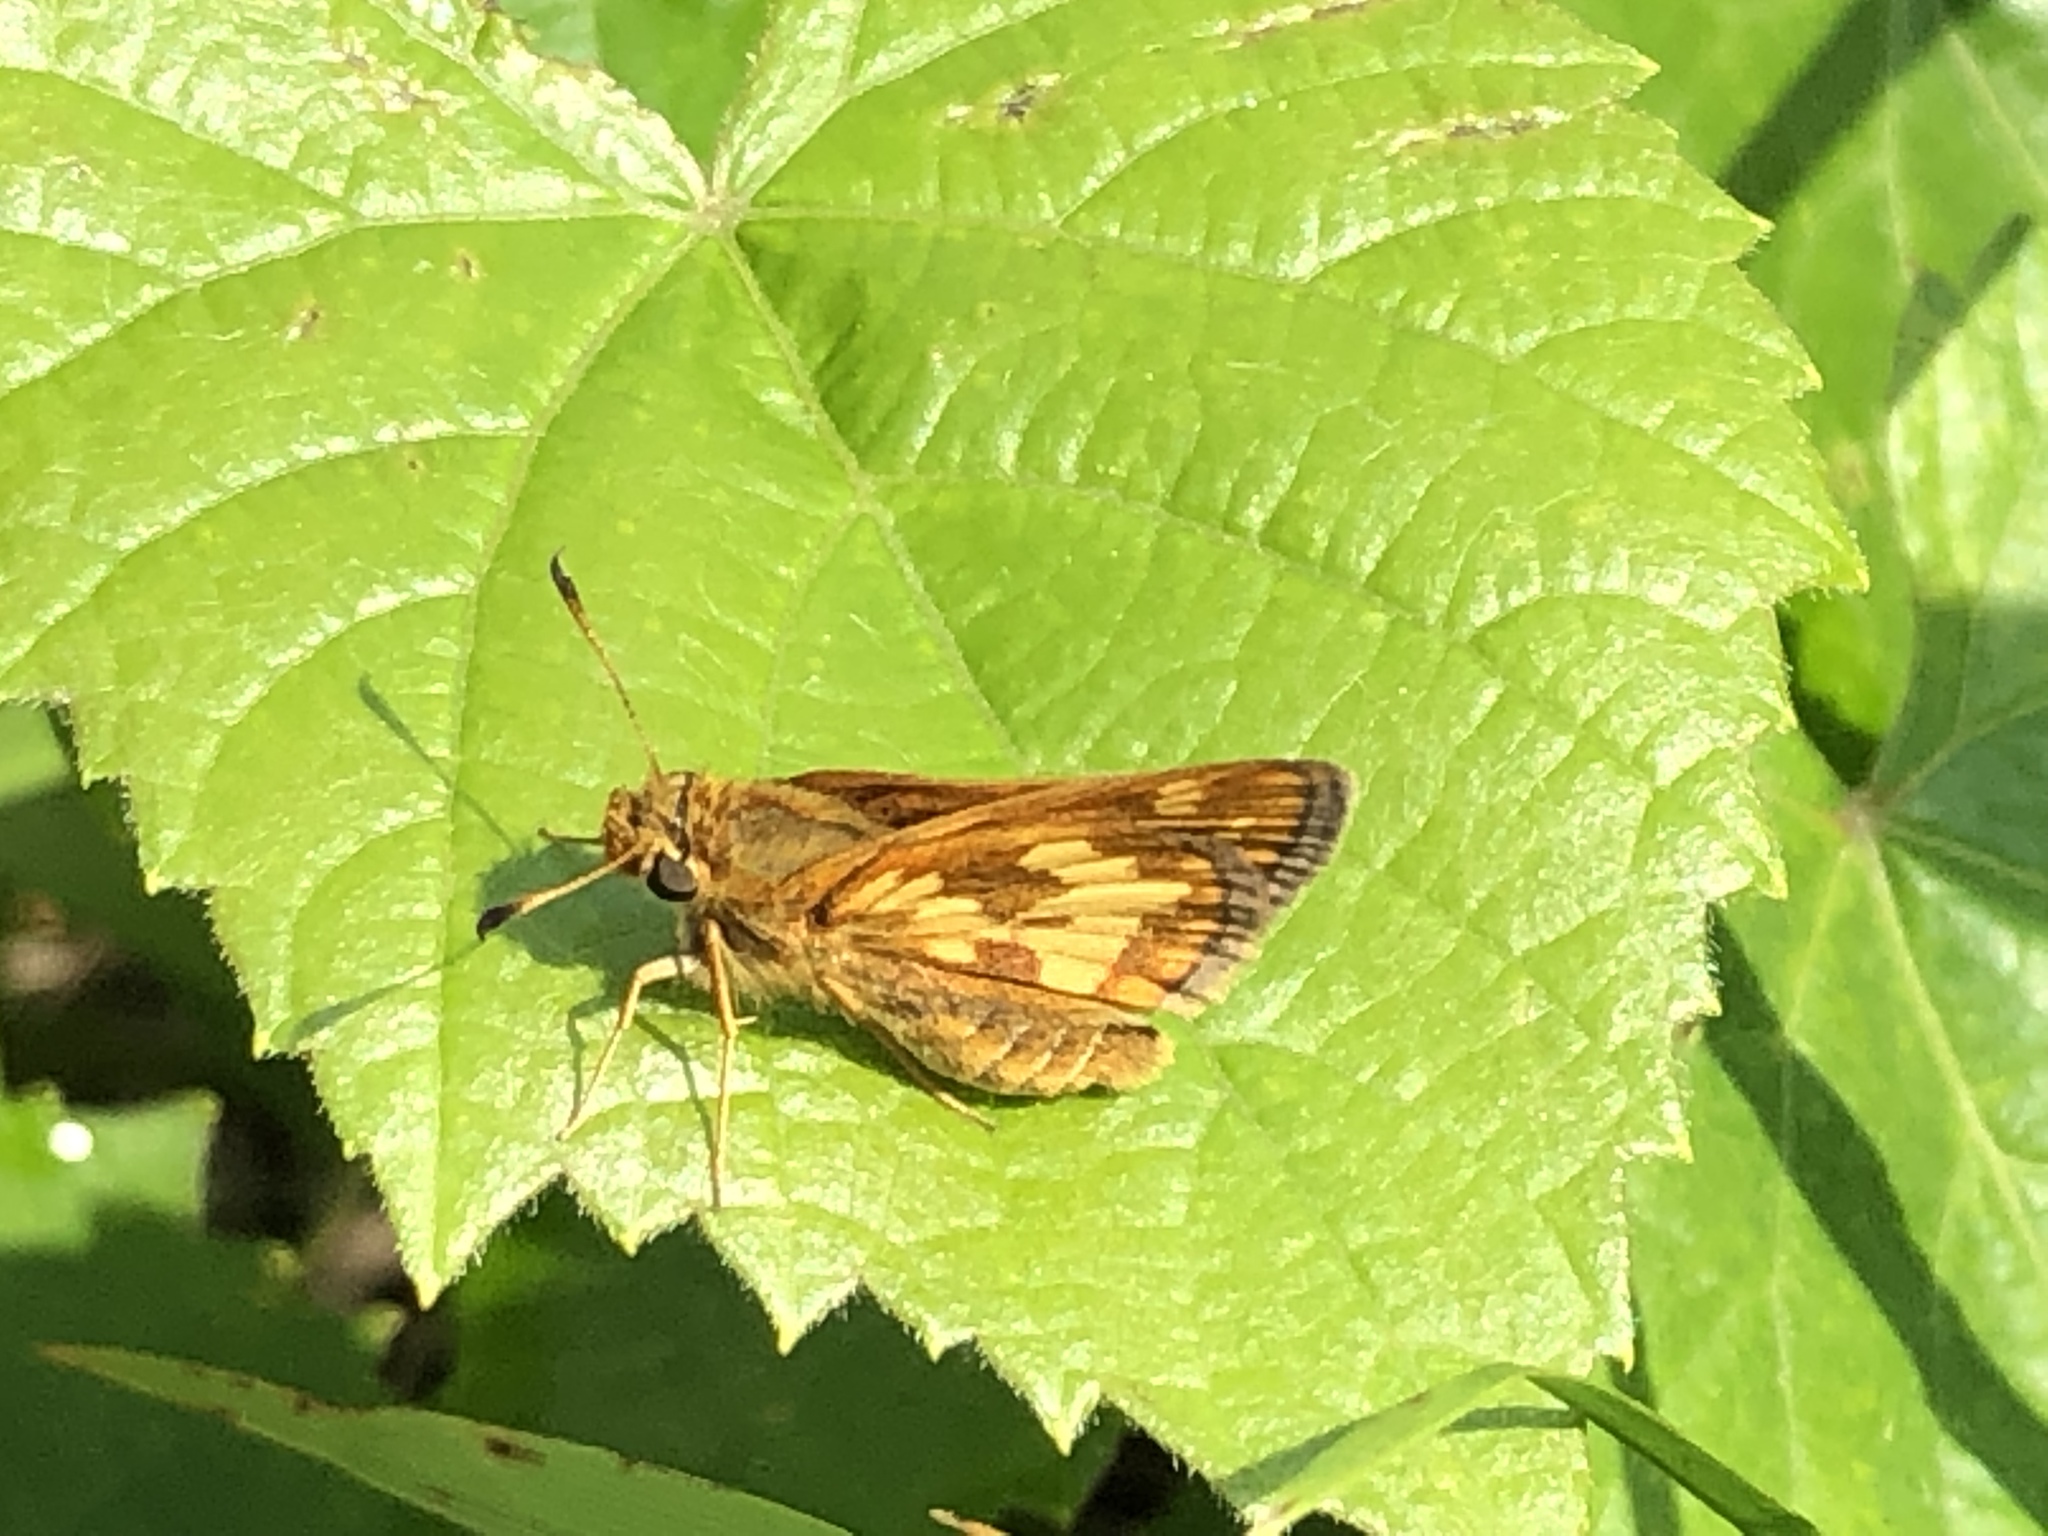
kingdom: Animalia
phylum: Arthropoda
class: Insecta
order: Lepidoptera
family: Hesperiidae
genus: Polites
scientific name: Polites coras
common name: Peck's skipper
